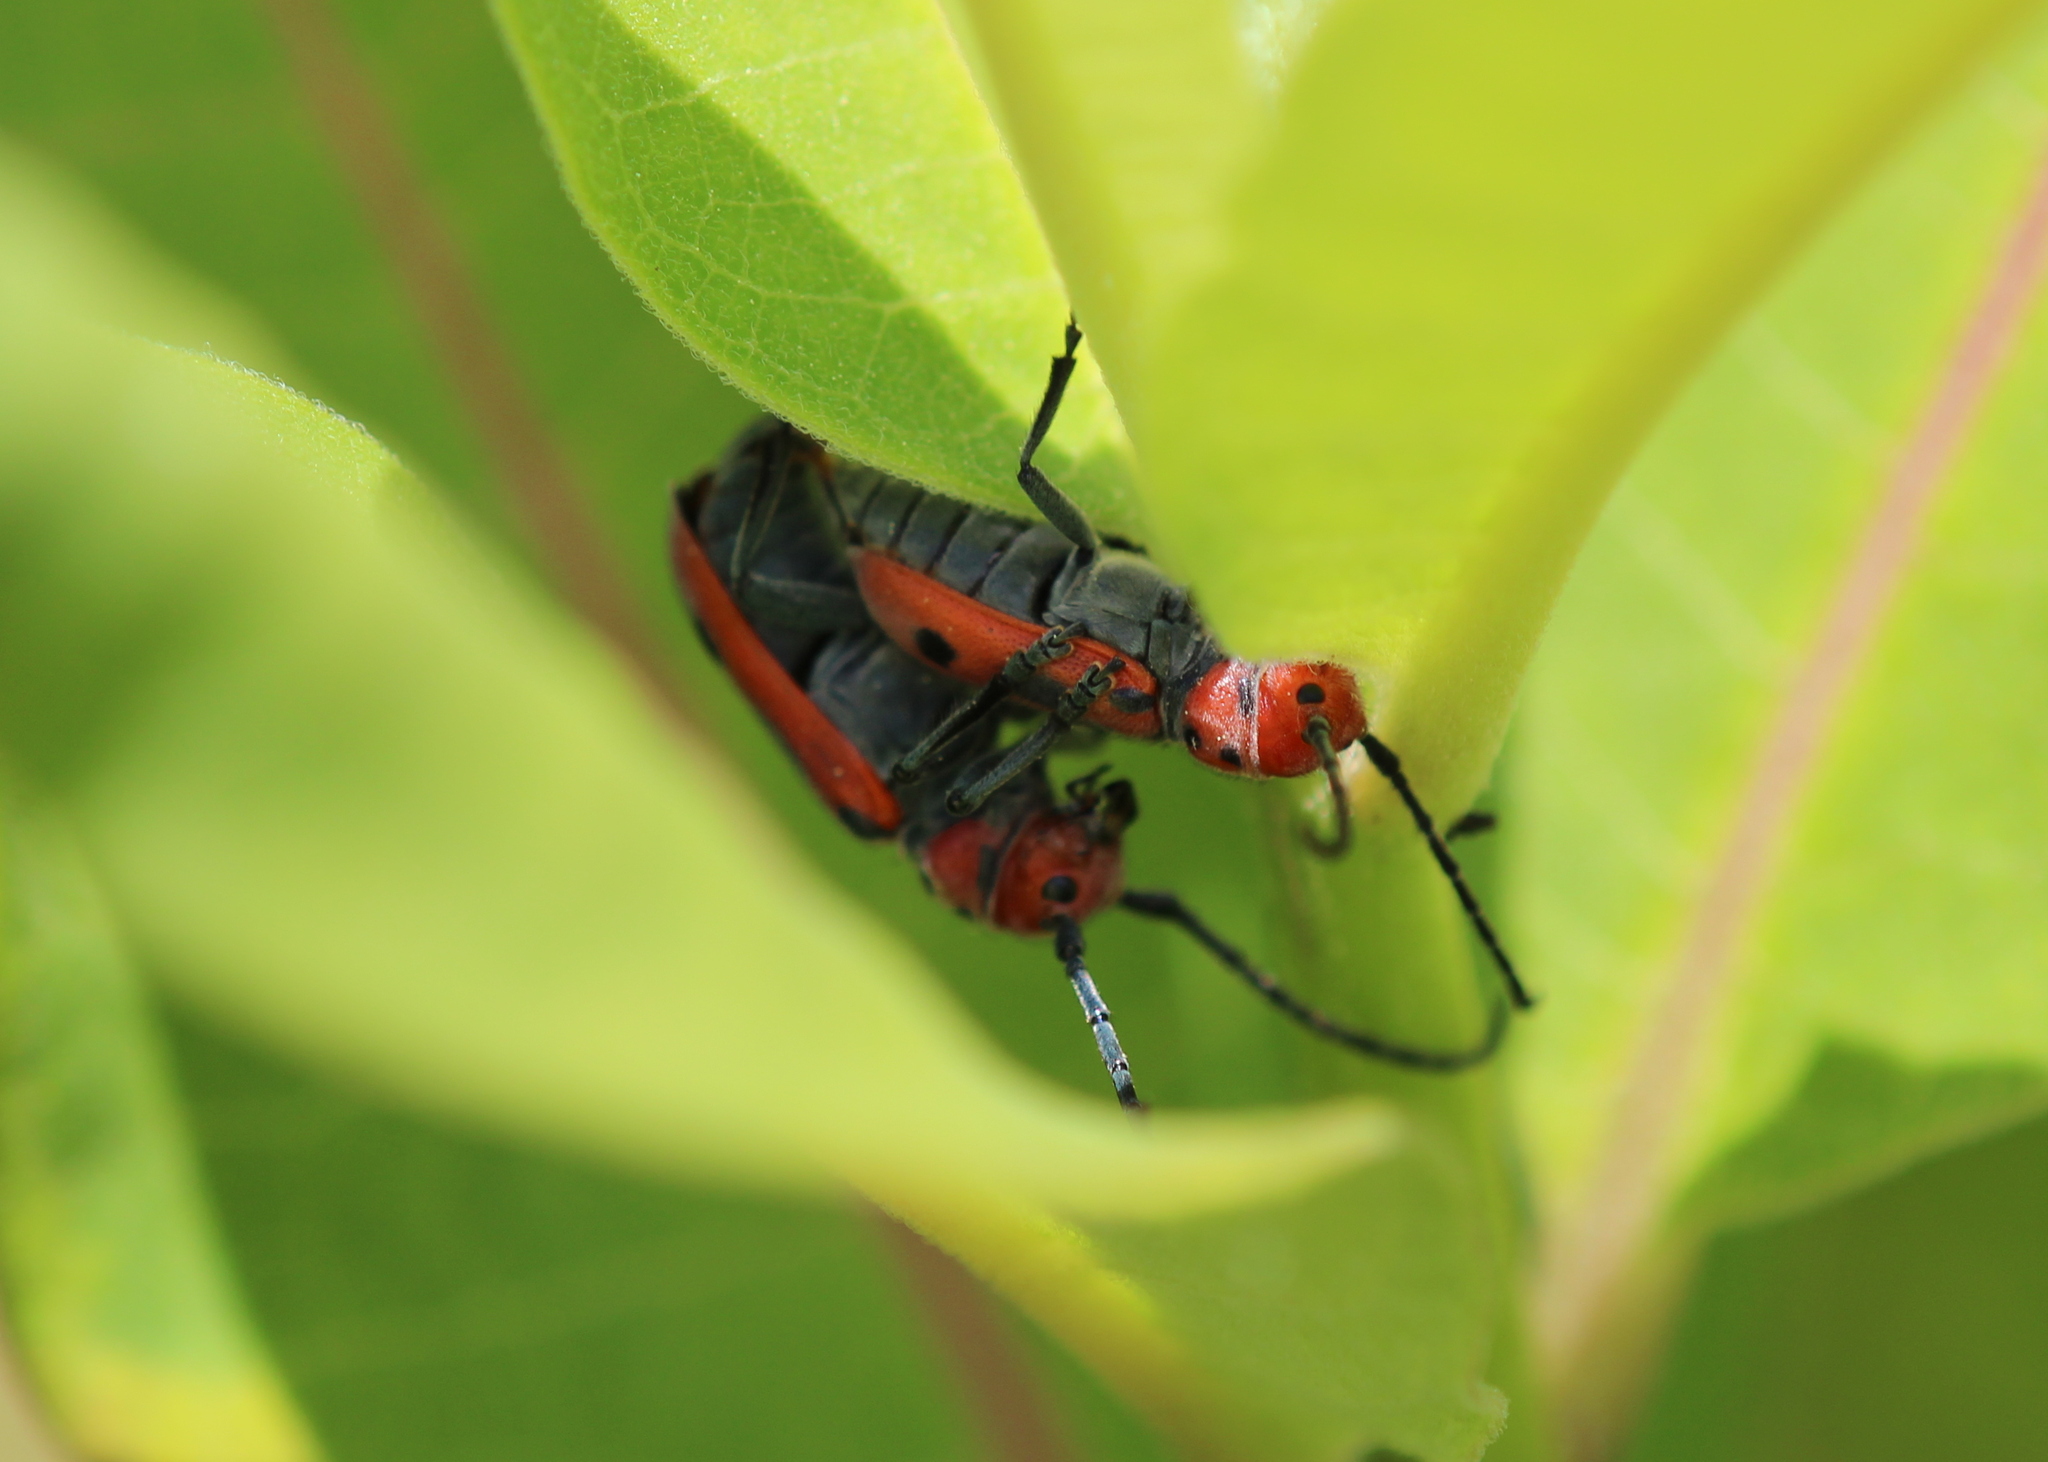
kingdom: Animalia
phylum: Arthropoda
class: Insecta
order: Coleoptera
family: Cerambycidae
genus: Tetraopes
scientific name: Tetraopes tetrophthalmus
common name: Red milkweed beetle
